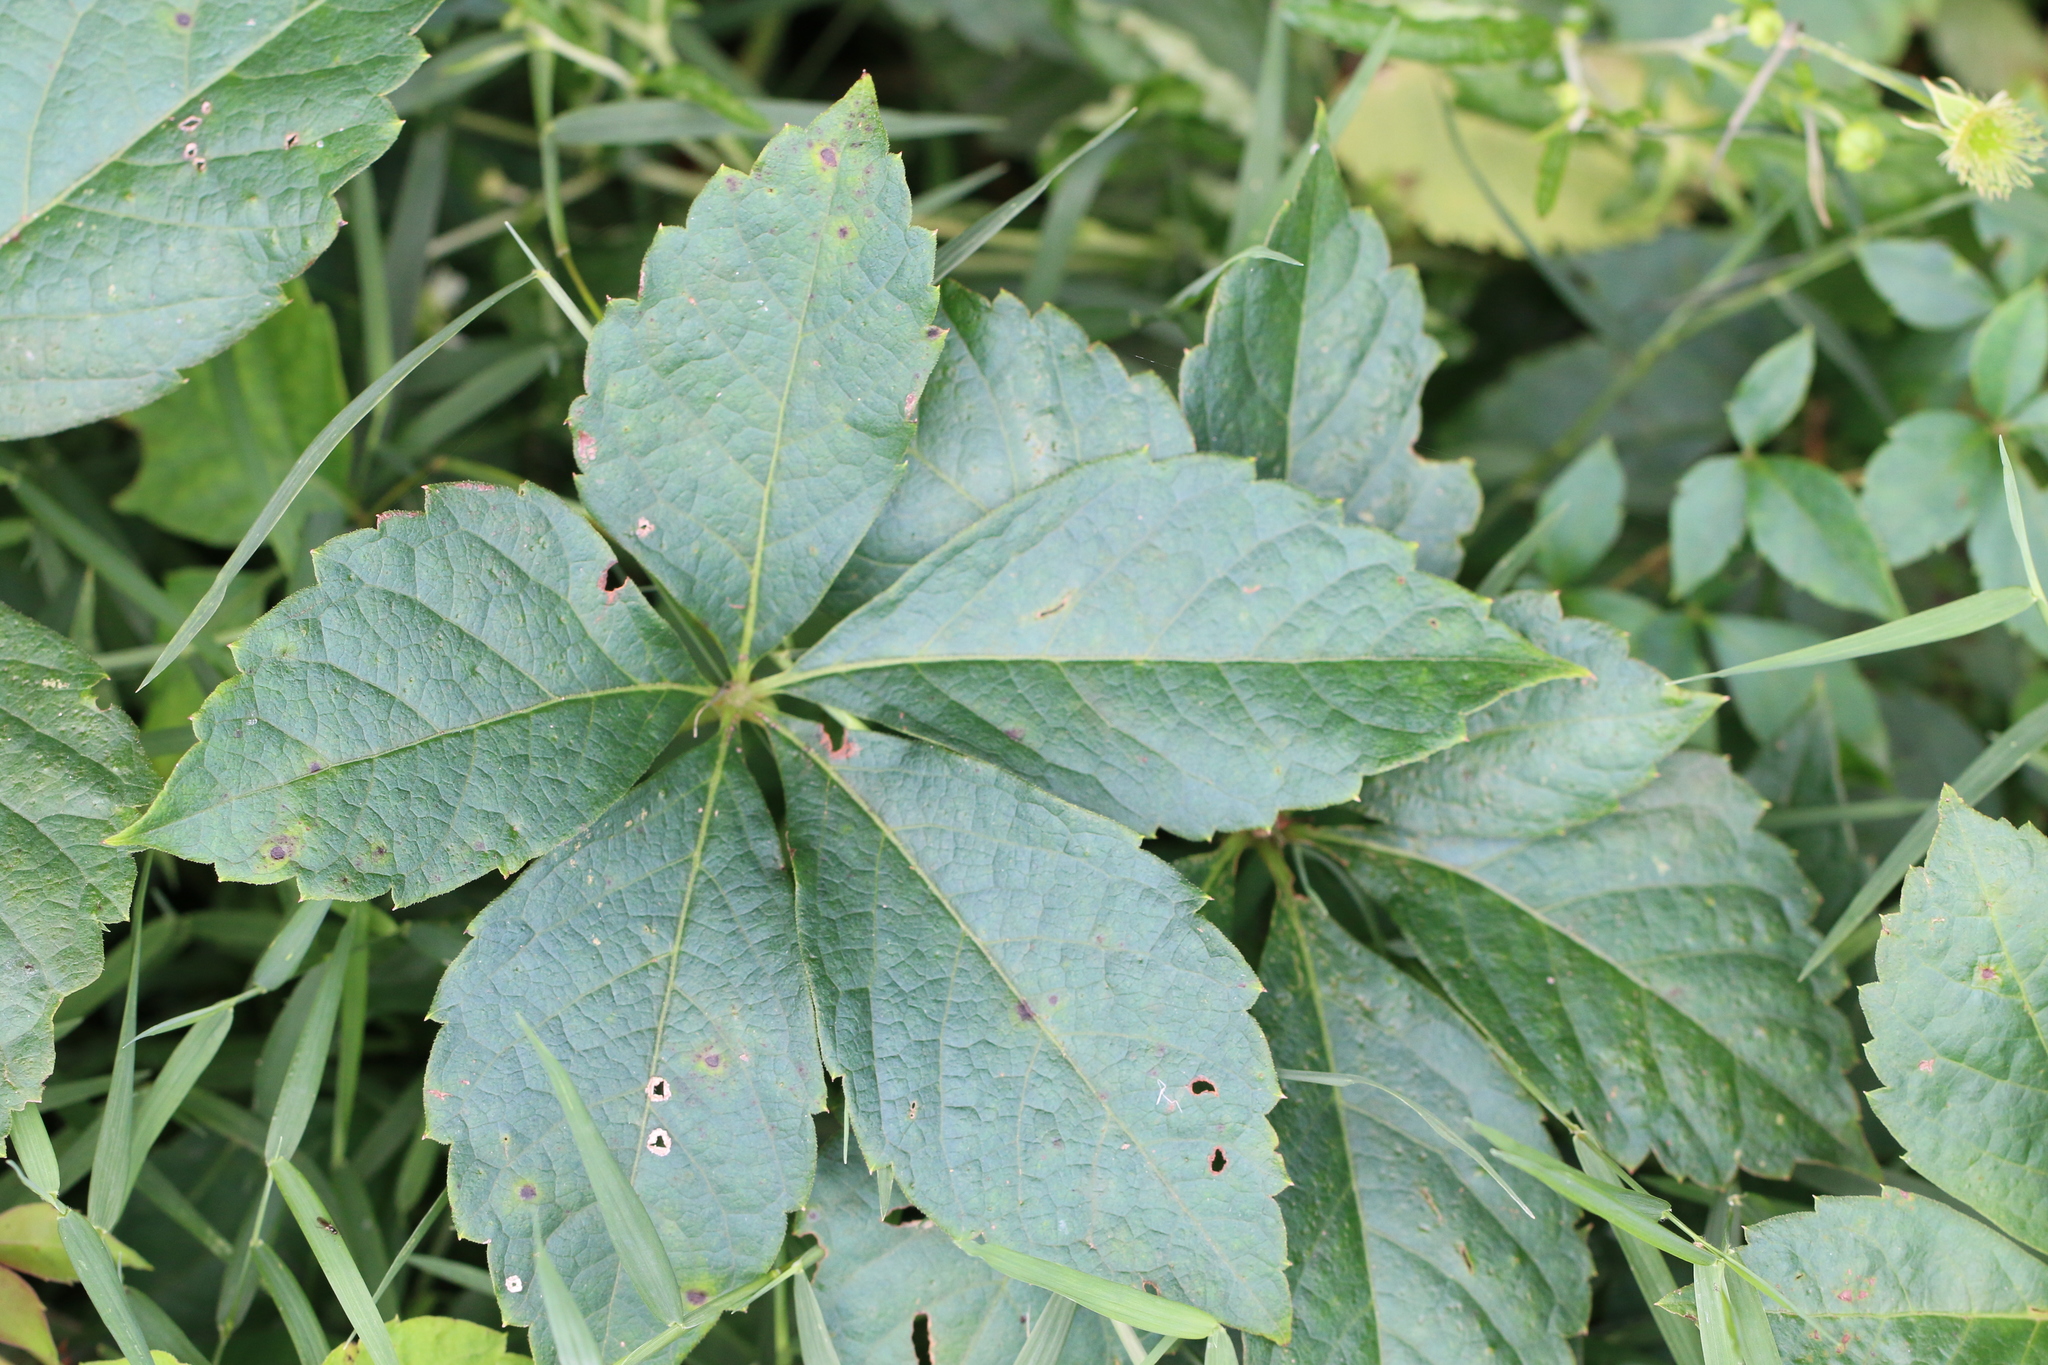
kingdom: Plantae
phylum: Tracheophyta
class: Magnoliopsida
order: Vitales
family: Vitaceae
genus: Parthenocissus
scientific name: Parthenocissus quinquefolia
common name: Virginia-creeper
